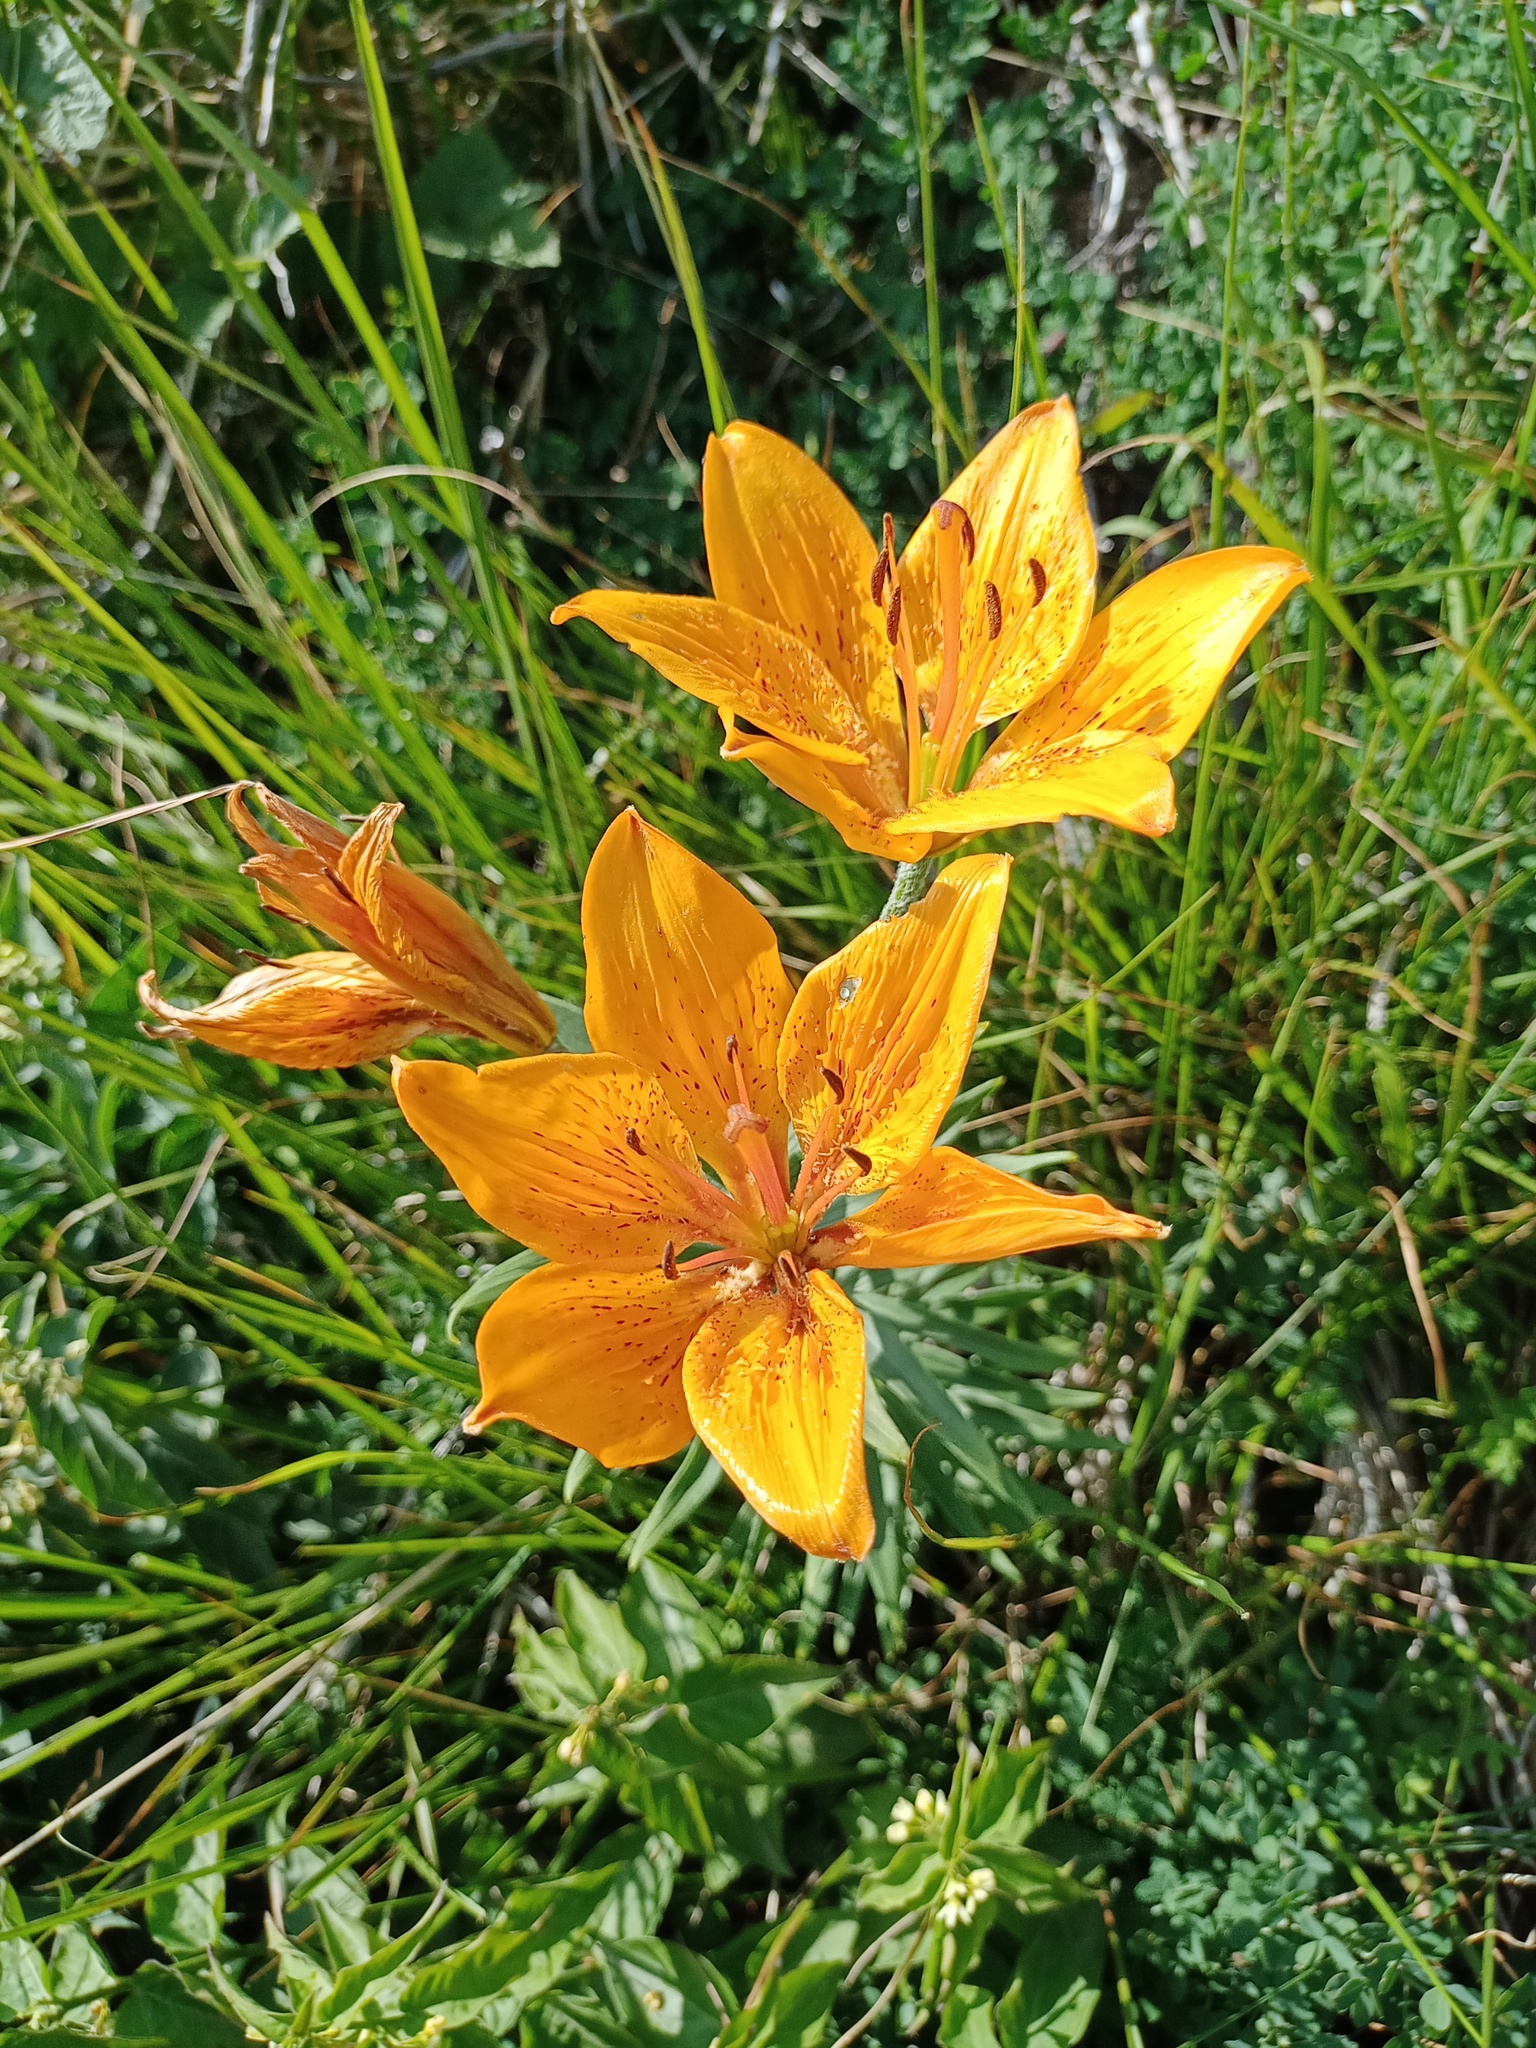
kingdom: Plantae
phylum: Tracheophyta
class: Liliopsida
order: Liliales
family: Liliaceae
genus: Lilium
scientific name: Lilium bulbiferum
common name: Orange lily
